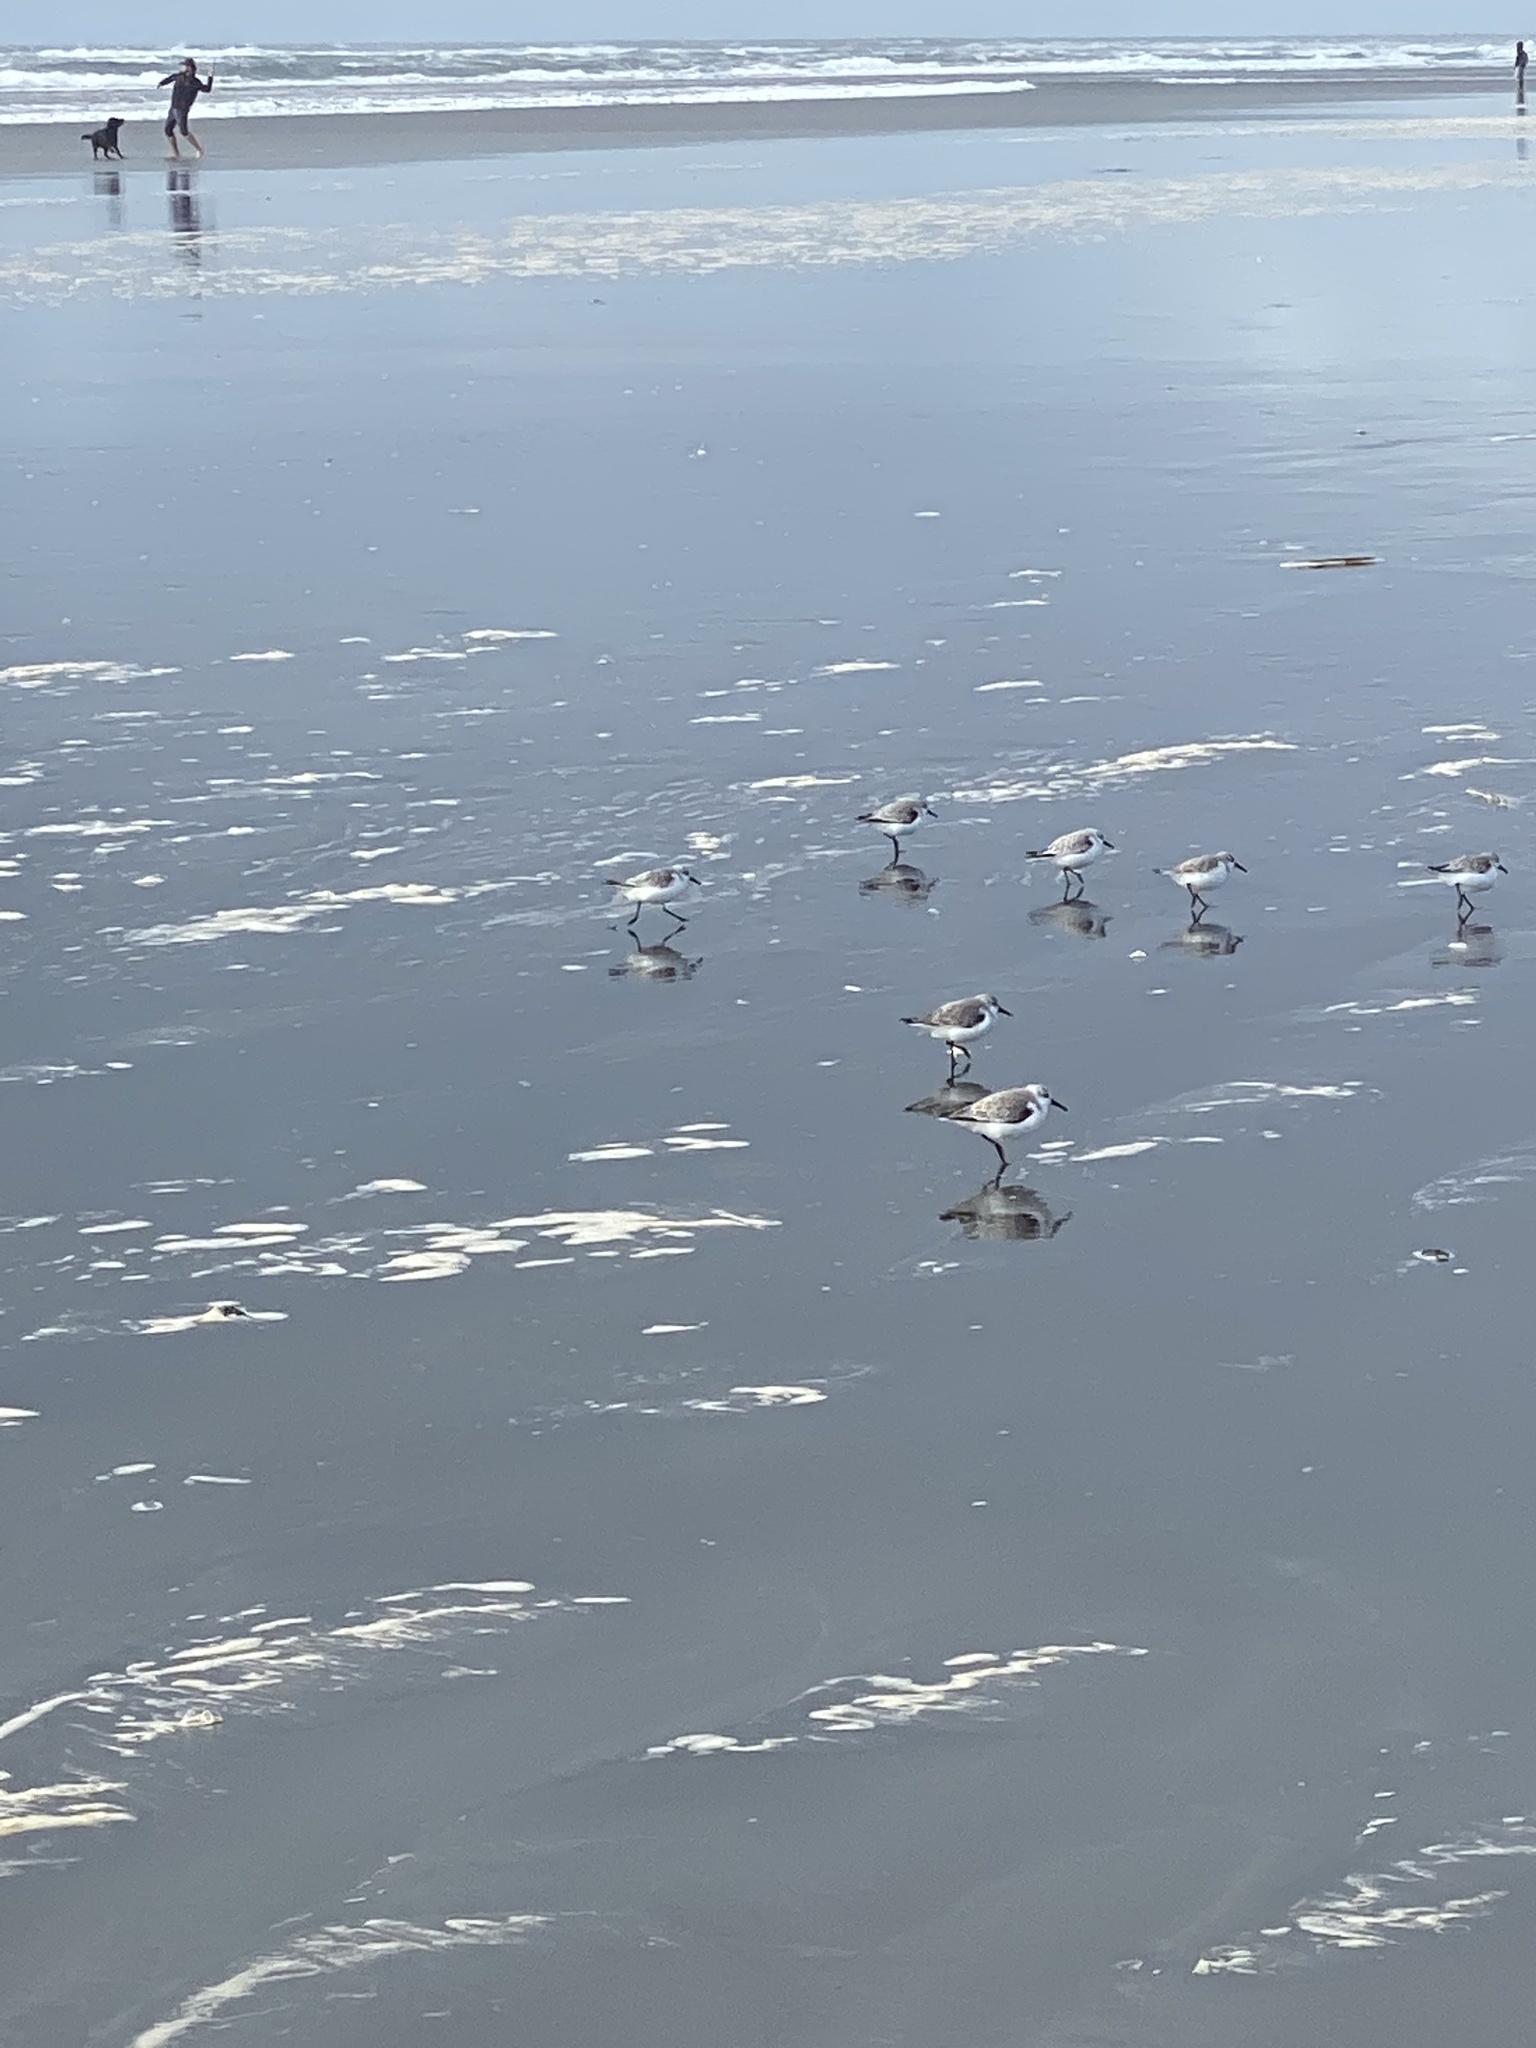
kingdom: Animalia
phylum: Chordata
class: Aves
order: Charadriiformes
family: Scolopacidae
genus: Calidris
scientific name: Calidris alba
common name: Sanderling
